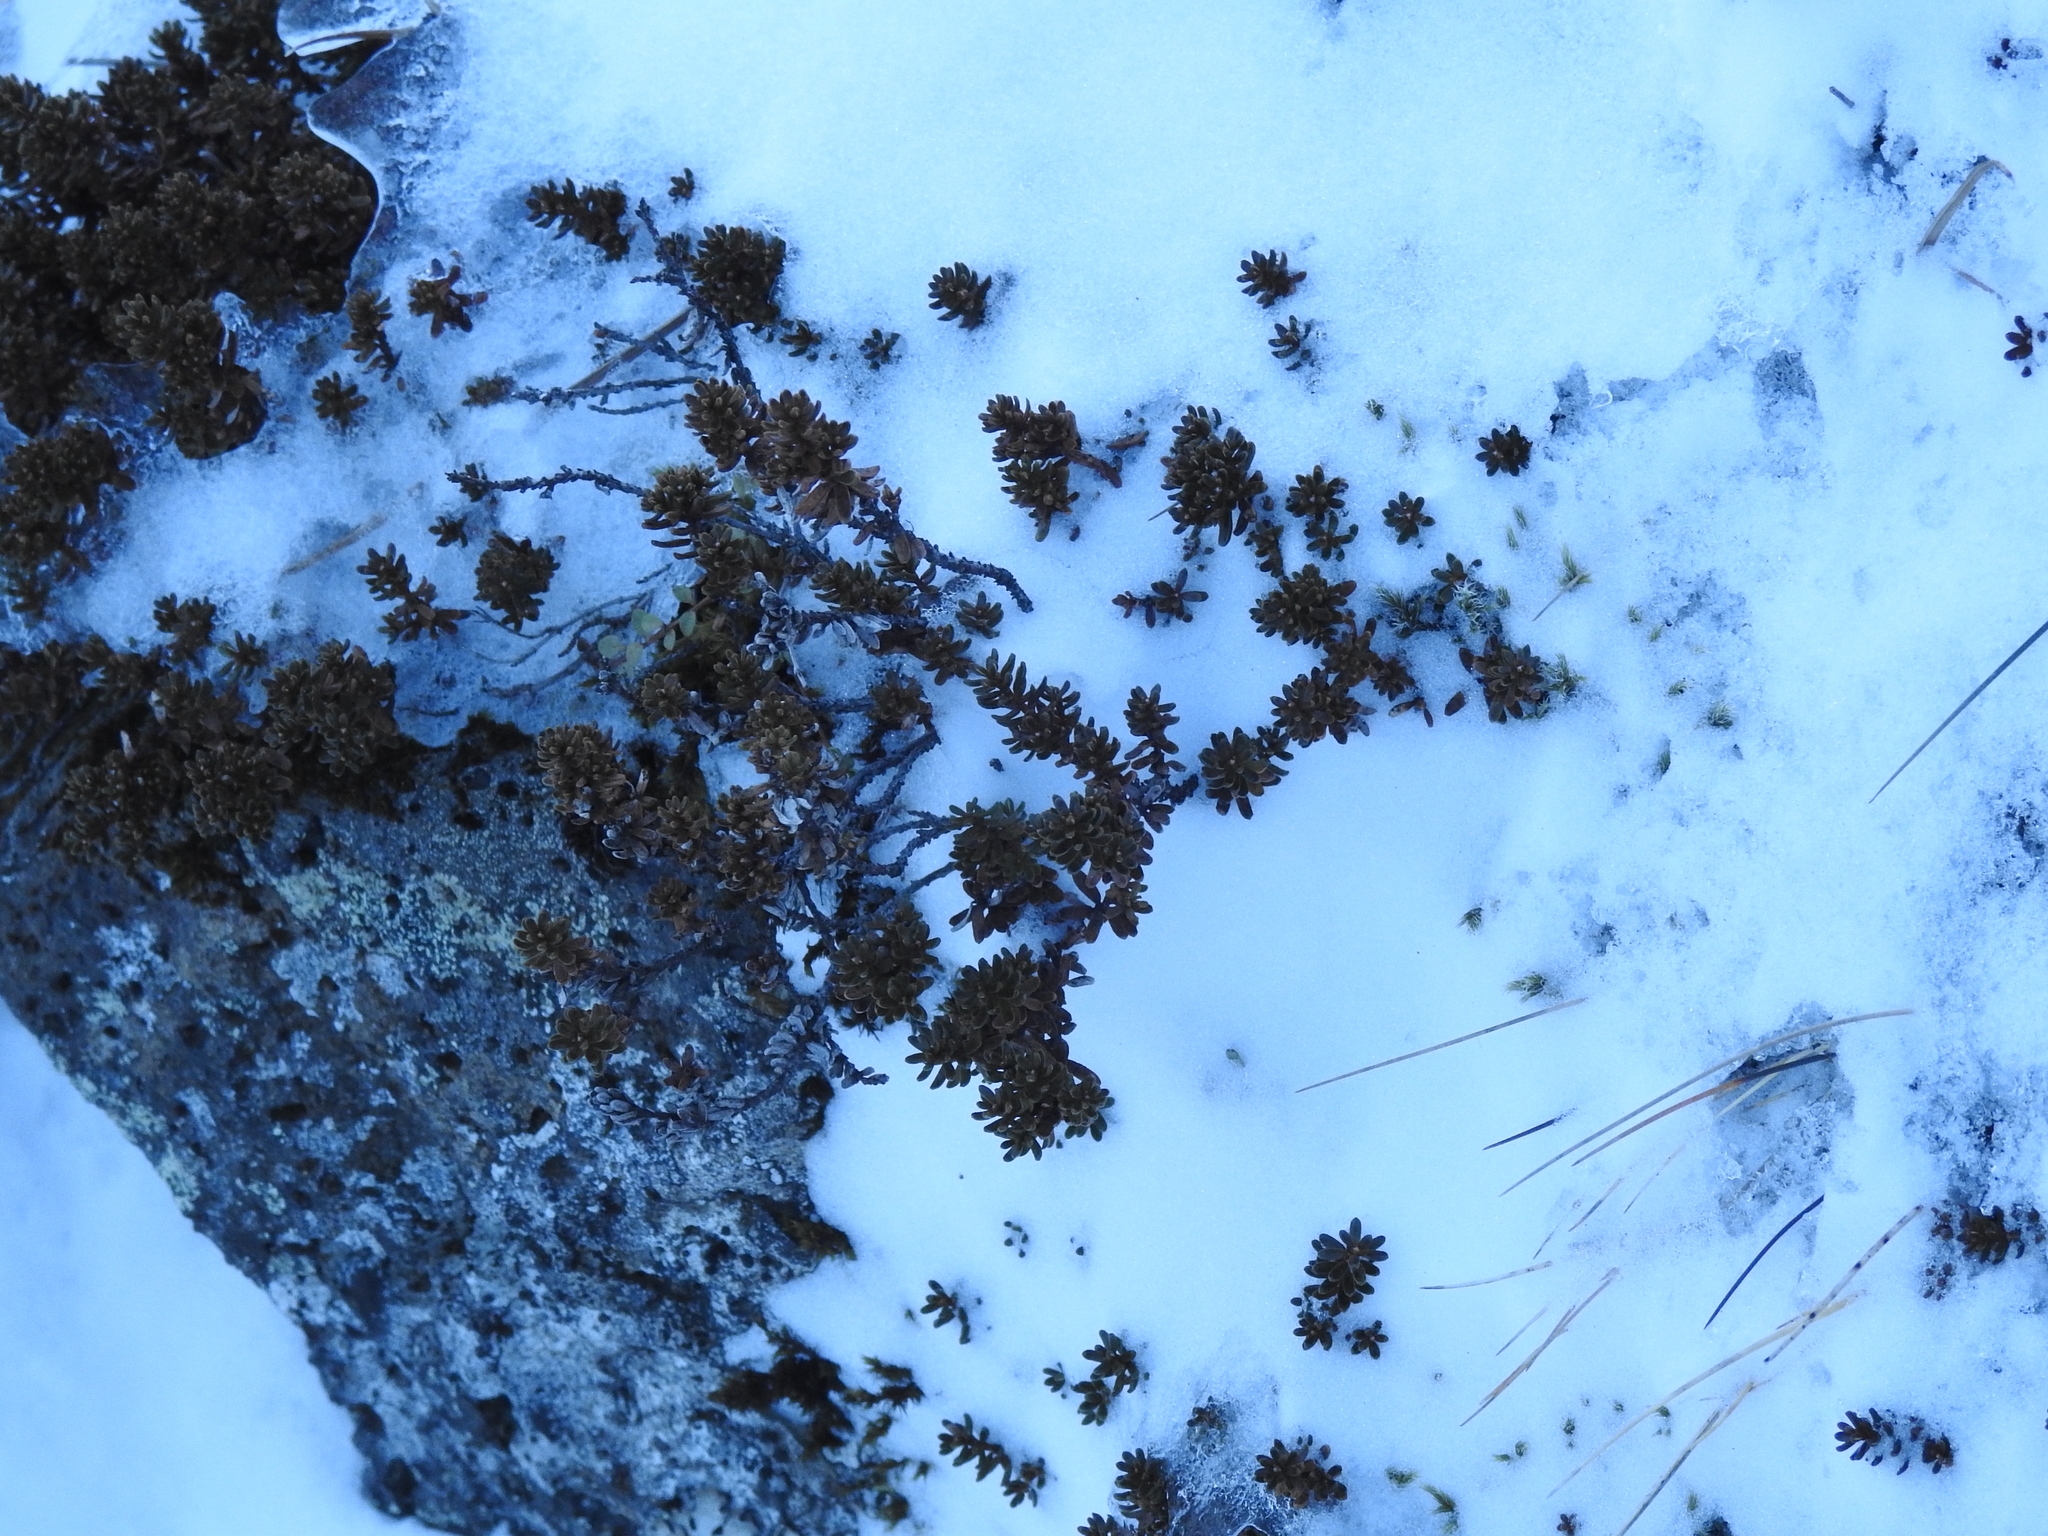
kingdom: Plantae
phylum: Tracheophyta
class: Magnoliopsida
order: Ericales
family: Ericaceae
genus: Empetrum
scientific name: Empetrum nigrum
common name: Black crowberry
